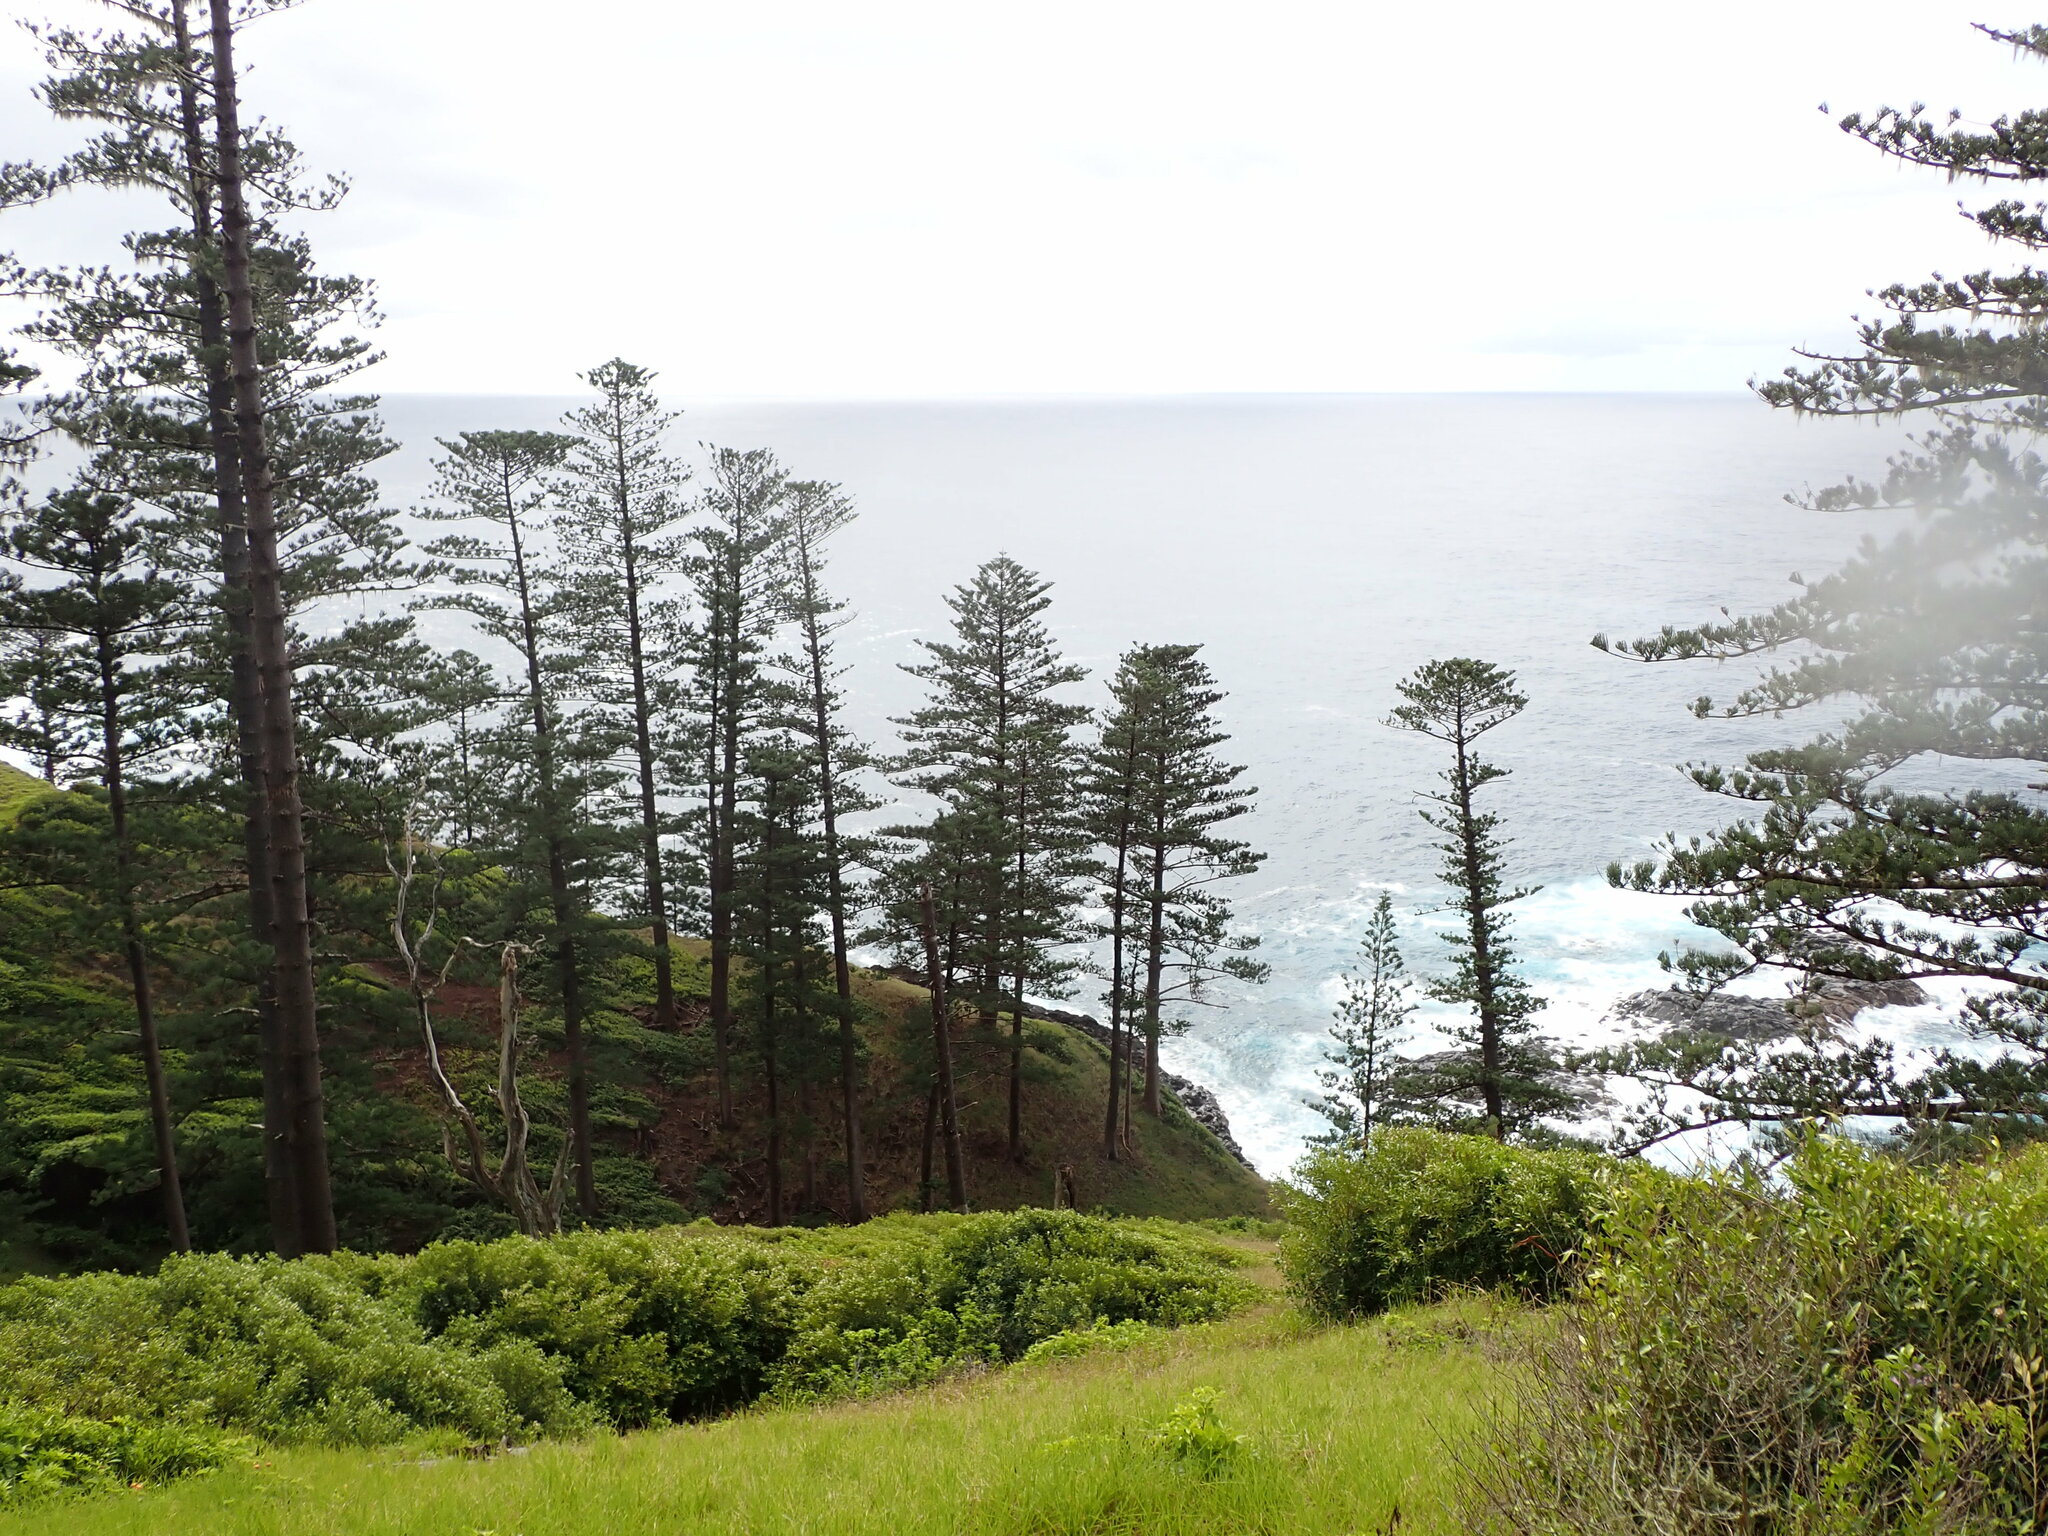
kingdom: Plantae
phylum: Tracheophyta
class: Pinopsida
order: Pinales
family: Araucariaceae
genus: Araucaria
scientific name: Araucaria heterophylla
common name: Norfolk island pine
